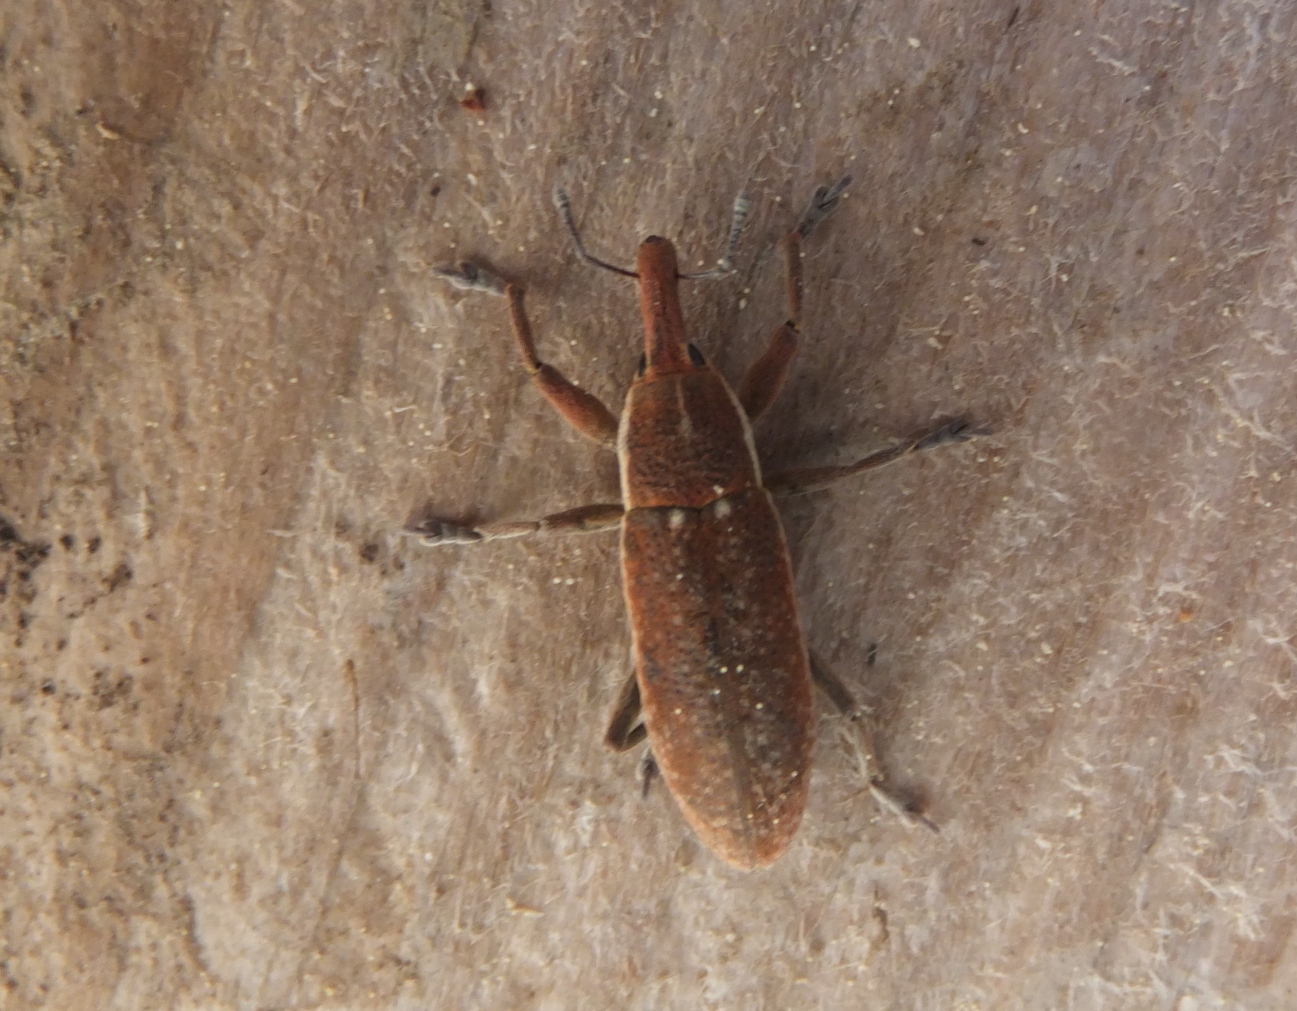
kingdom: Animalia
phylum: Arthropoda
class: Insecta
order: Coleoptera
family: Curculionidae
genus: Lixus
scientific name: Lixus punctiventris
